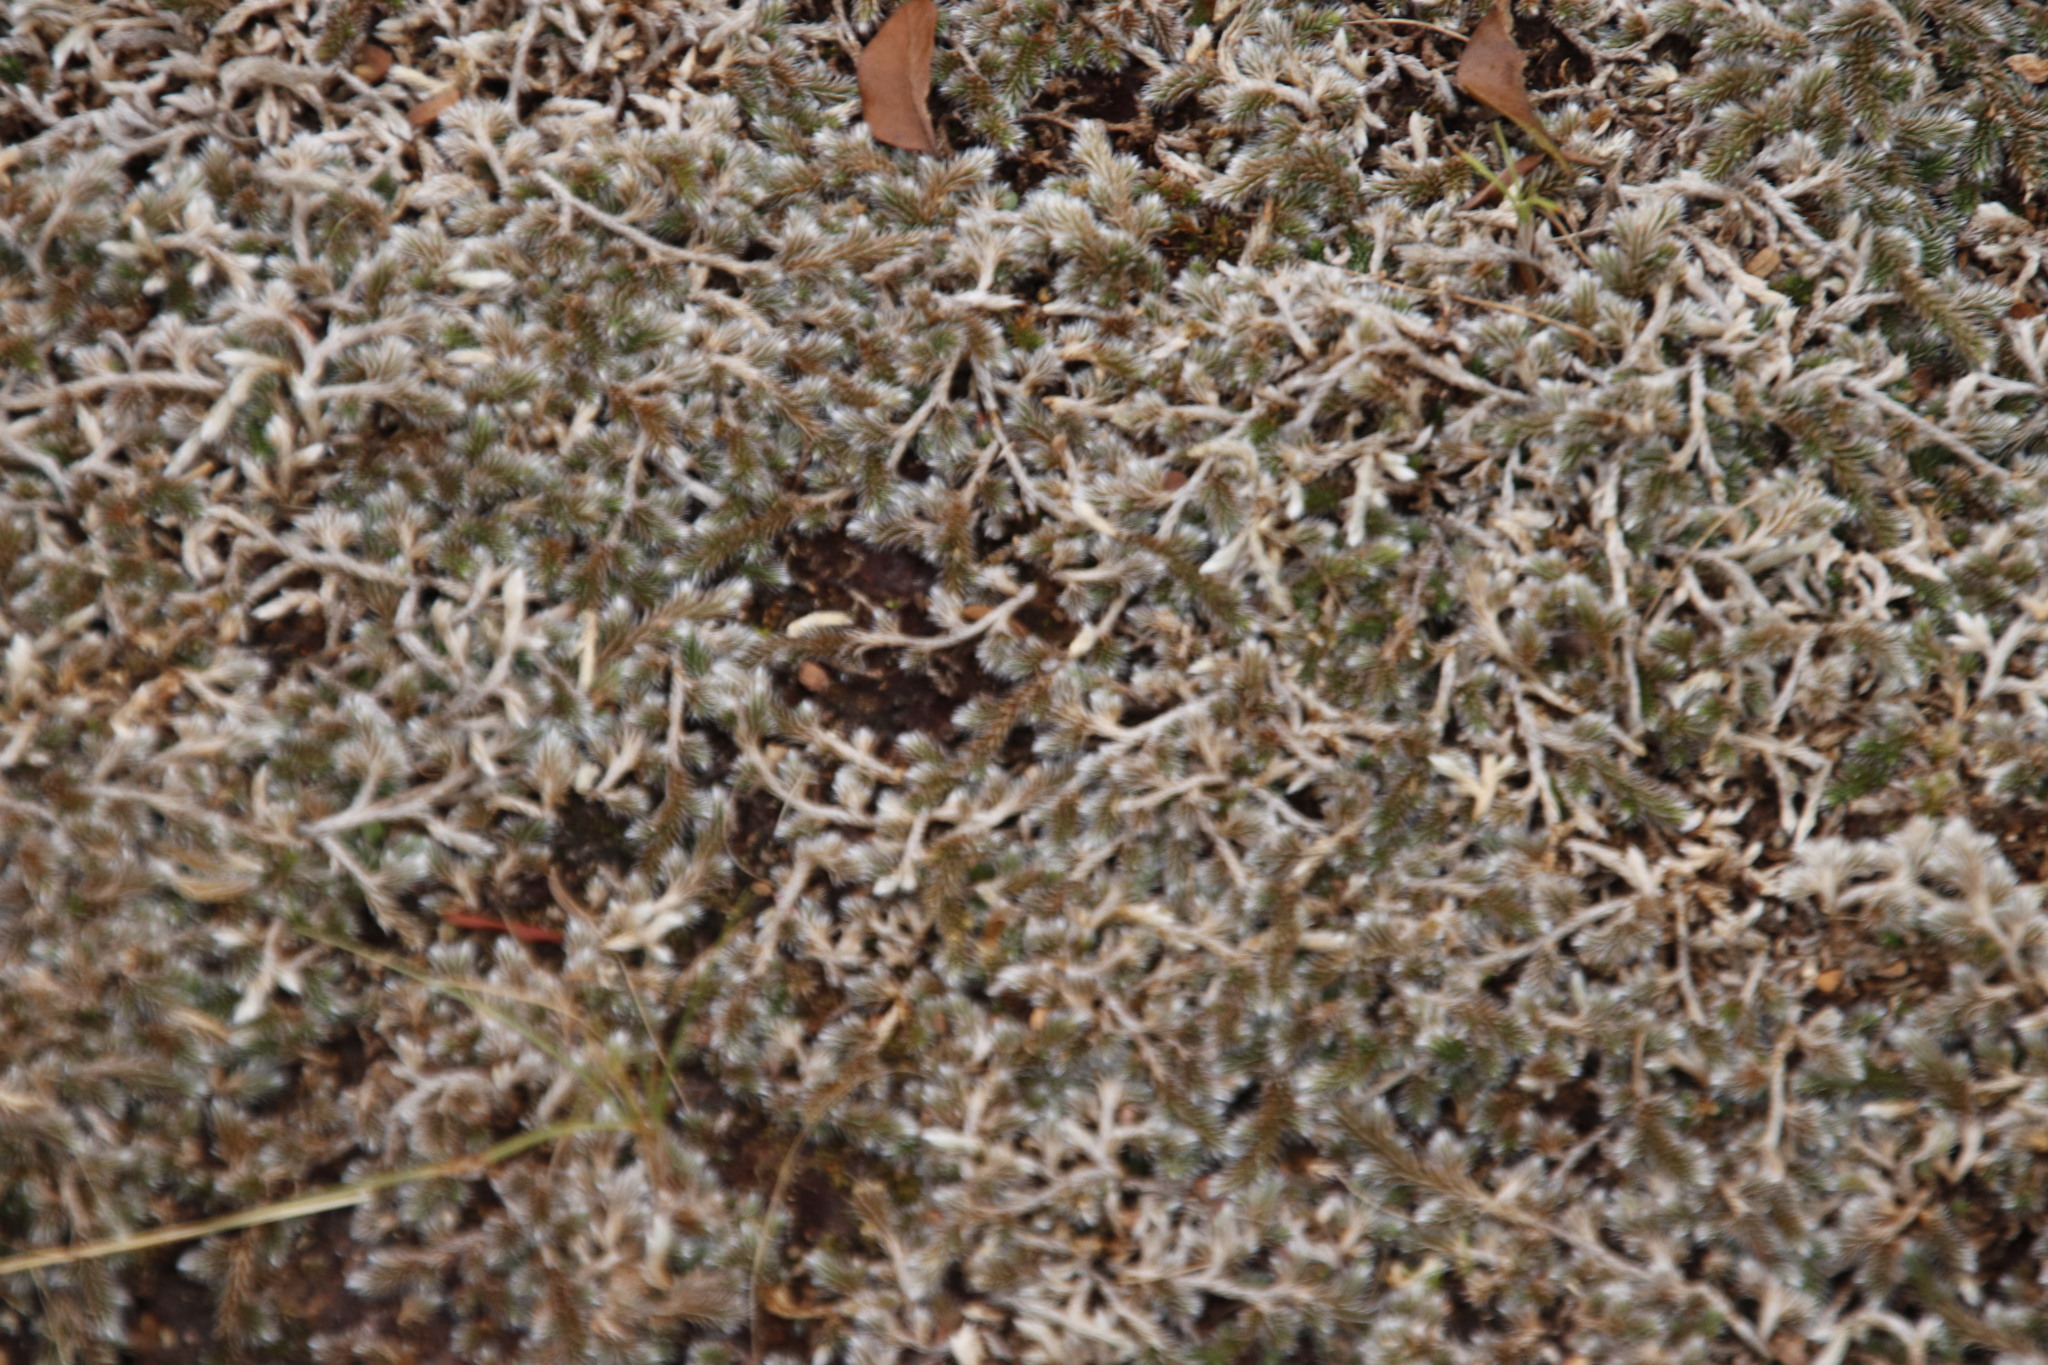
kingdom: Plantae
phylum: Tracheophyta
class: Lycopodiopsida
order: Selaginellales
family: Selaginellaceae
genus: Selaginella
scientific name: Selaginella dregei
